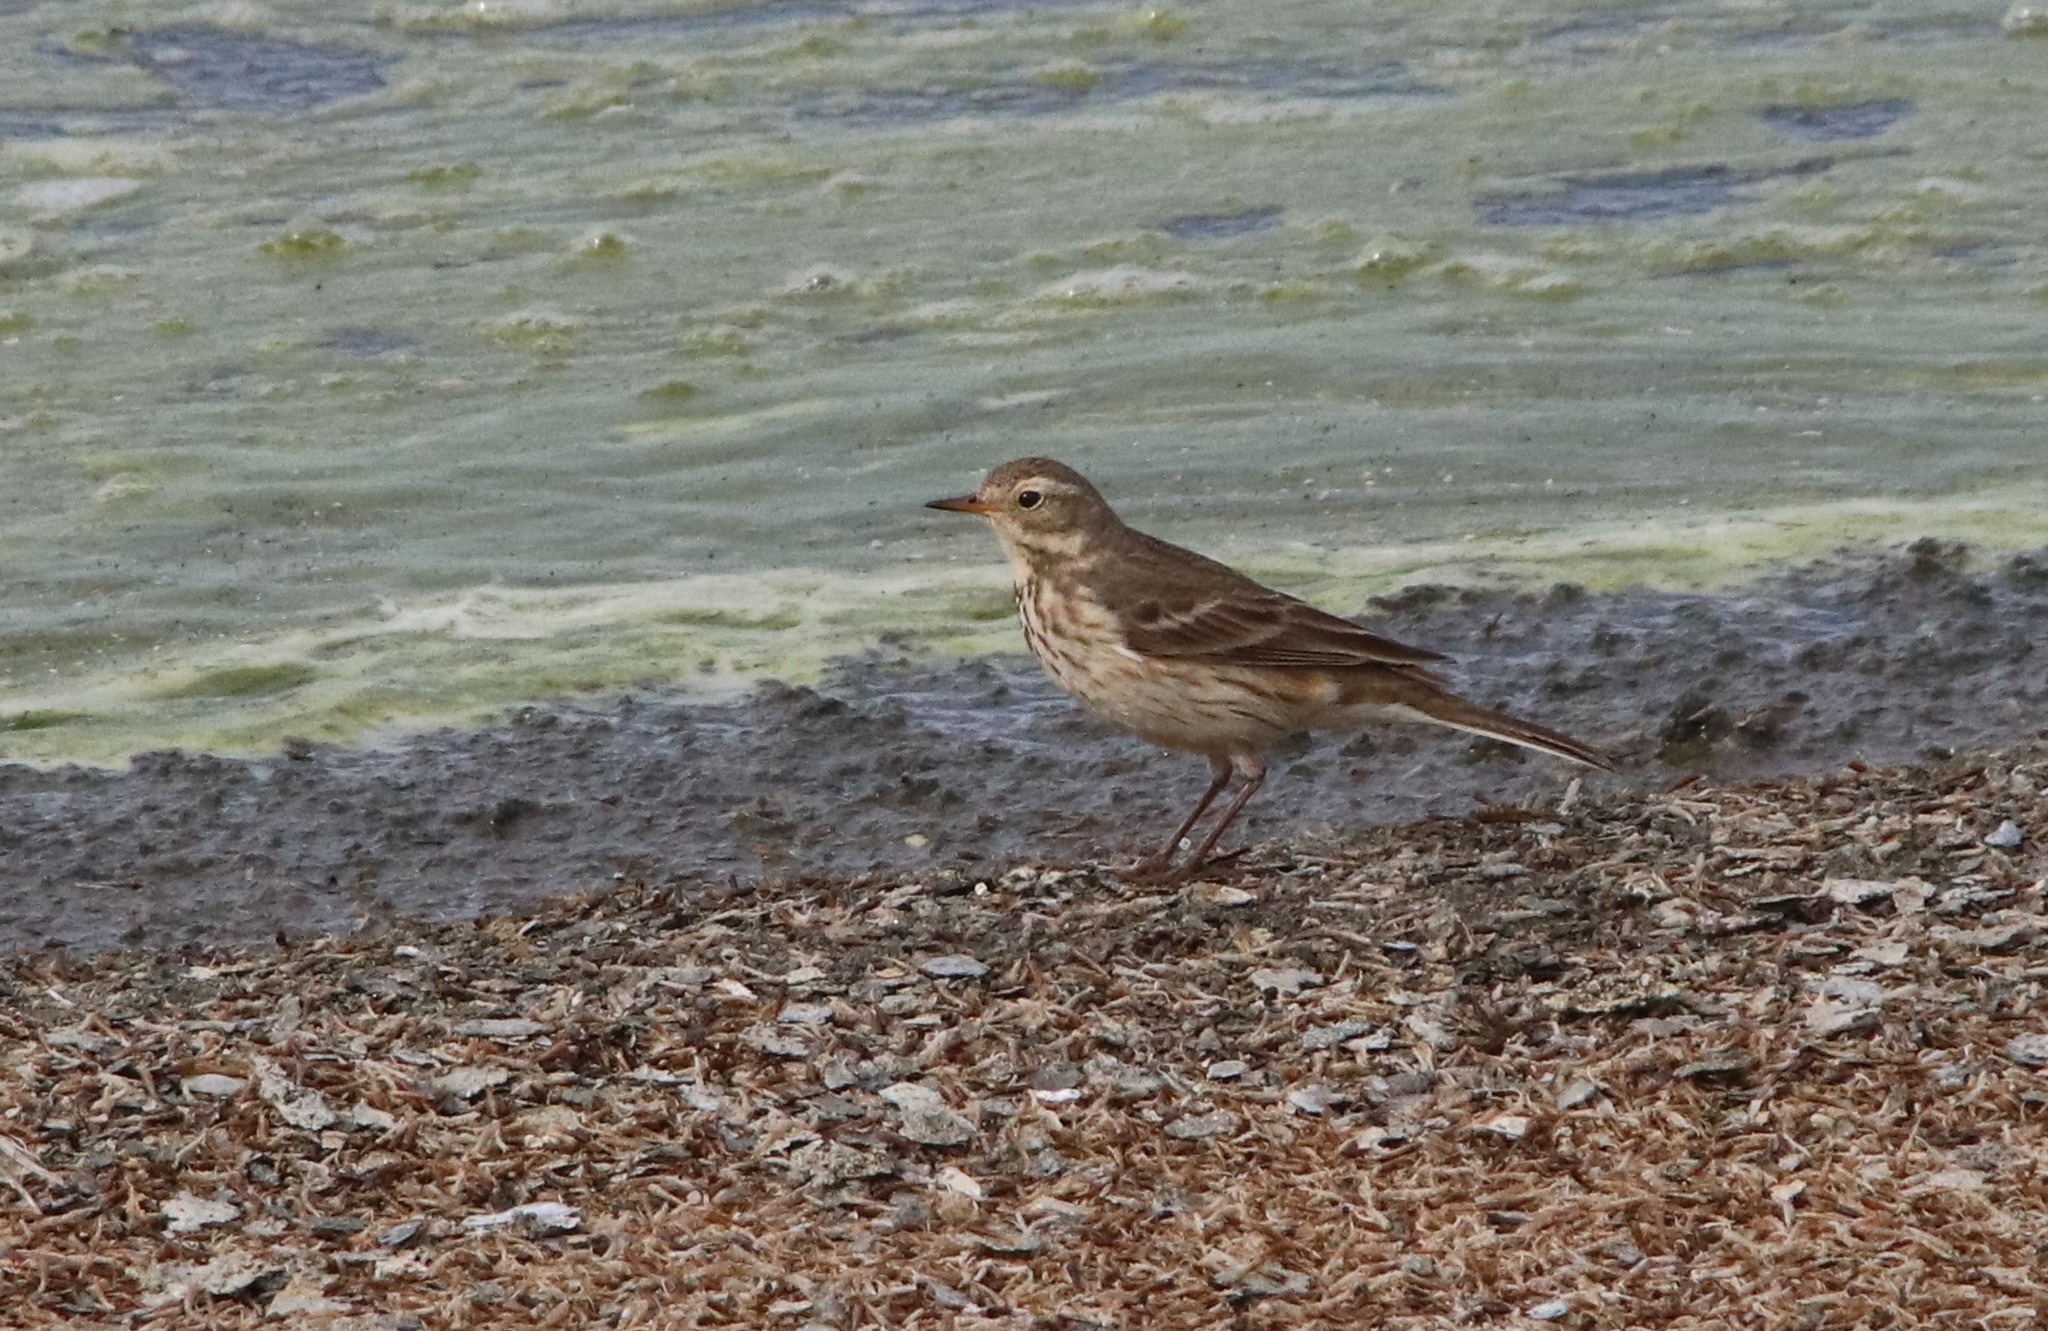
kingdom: Animalia
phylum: Chordata
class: Aves
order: Passeriformes
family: Motacillidae
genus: Anthus
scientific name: Anthus rubescens
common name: Buff-bellied pipit
